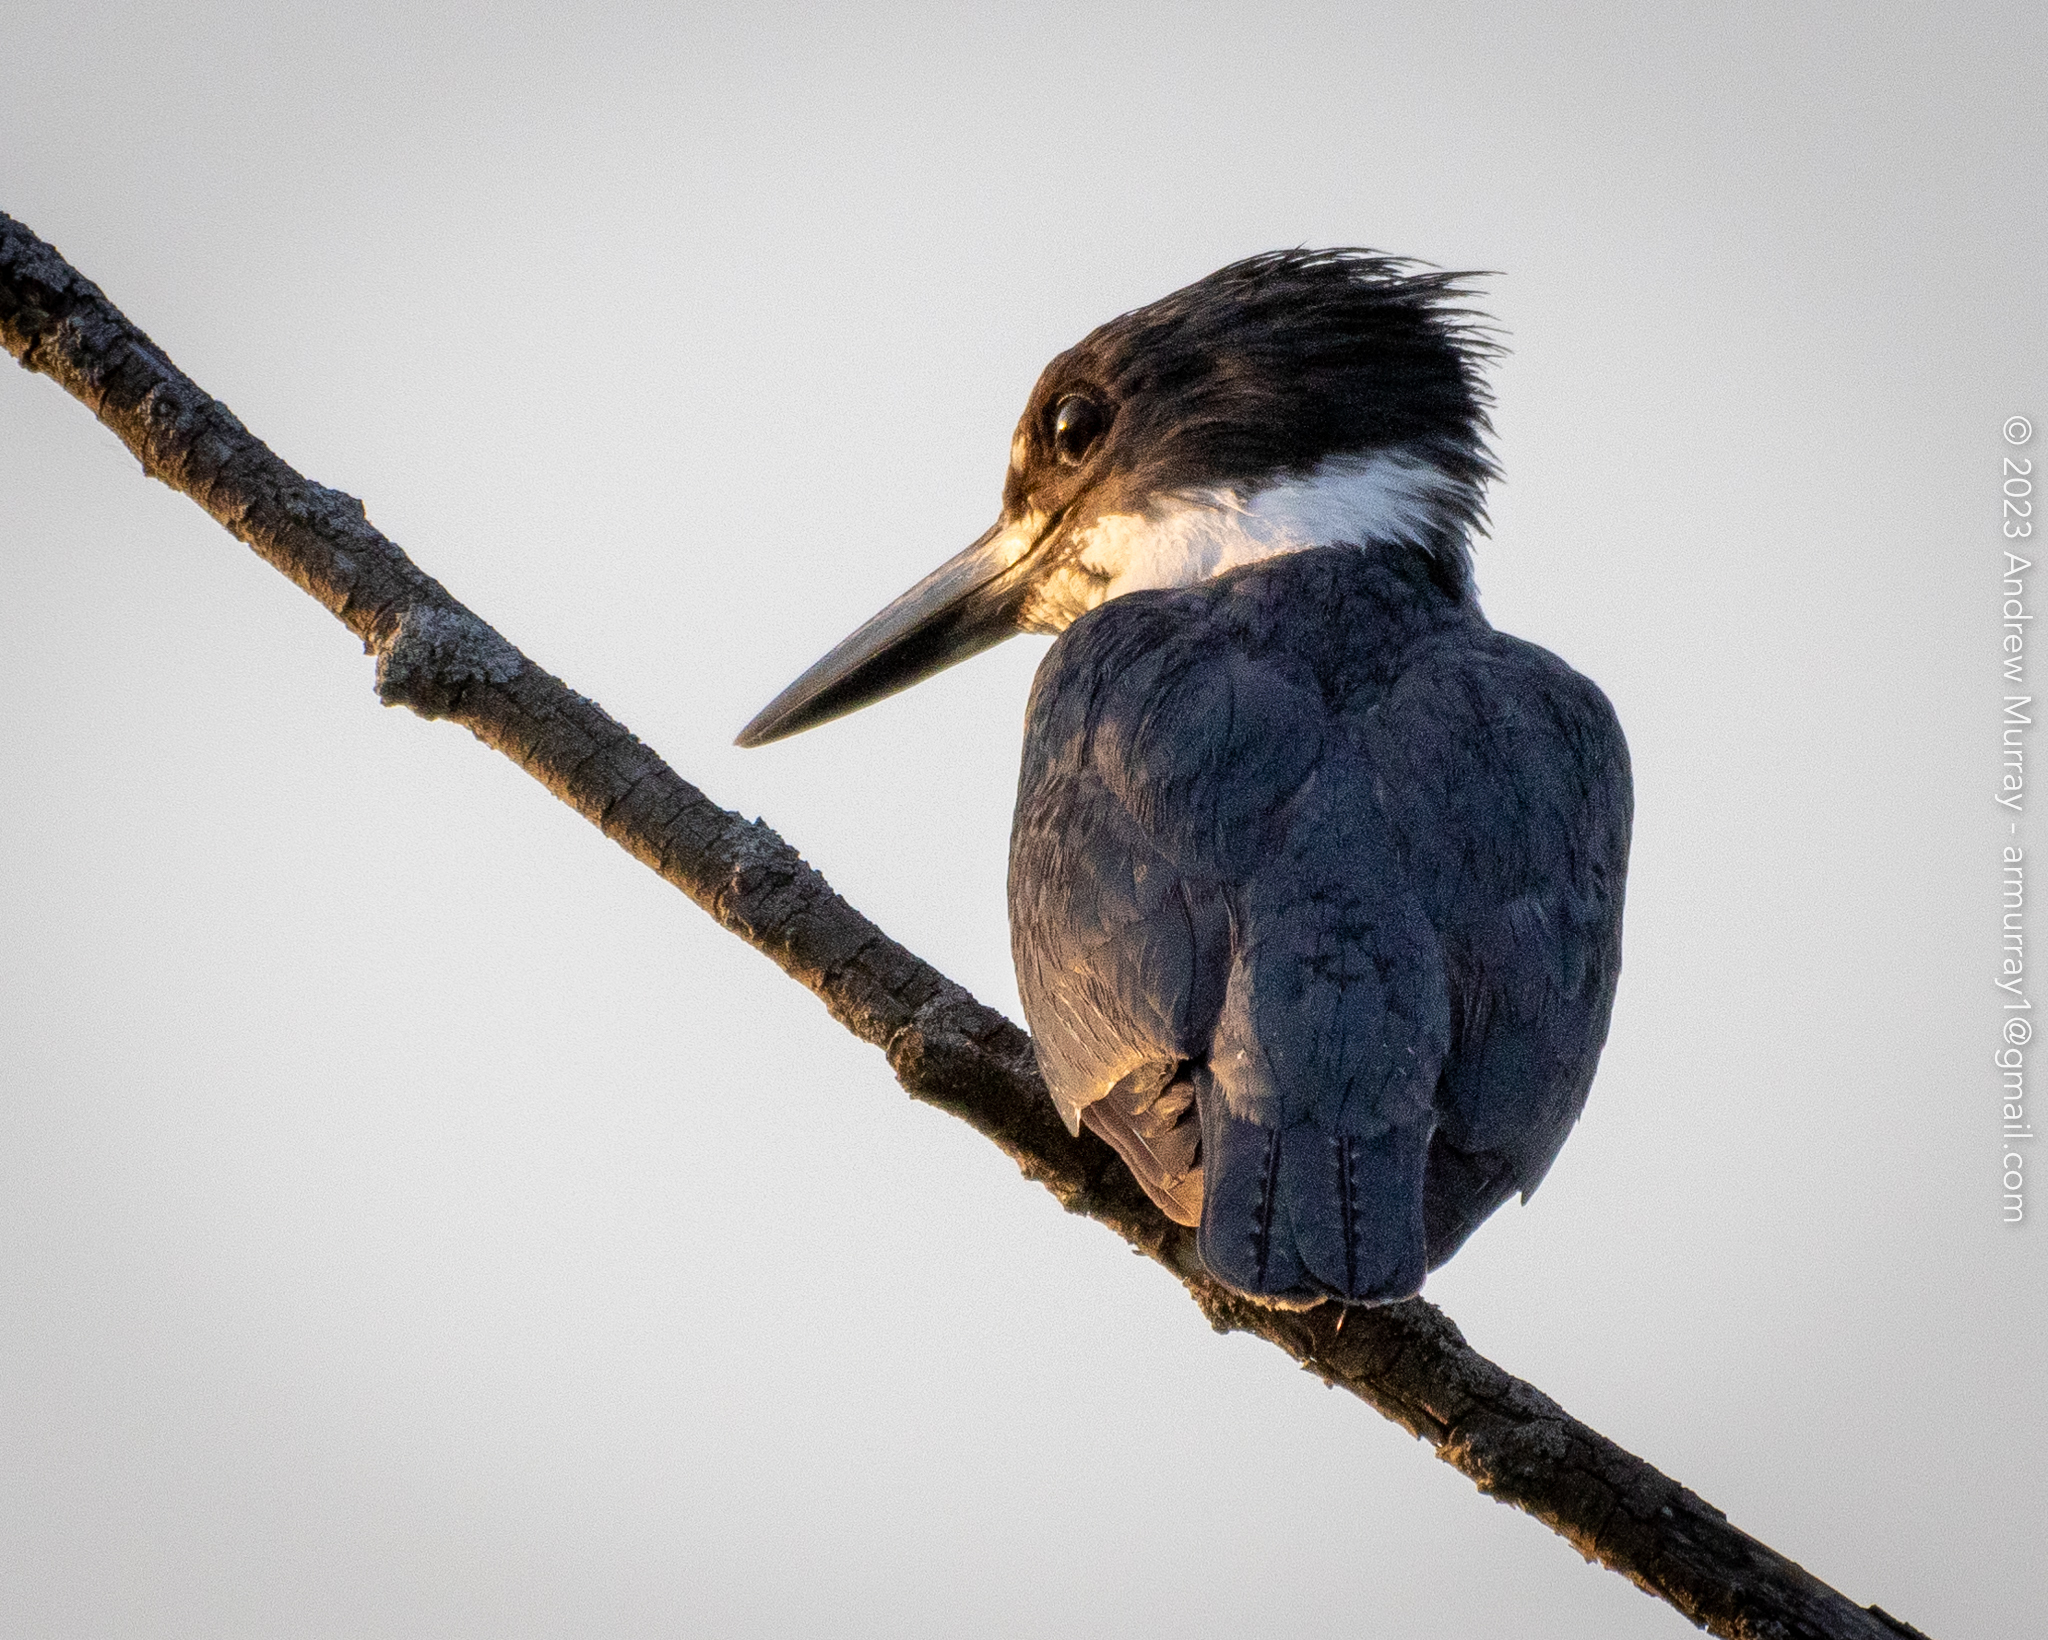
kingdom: Animalia
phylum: Chordata
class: Aves
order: Coraciiformes
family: Alcedinidae
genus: Megaceryle
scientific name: Megaceryle alcyon
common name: Belted kingfisher
